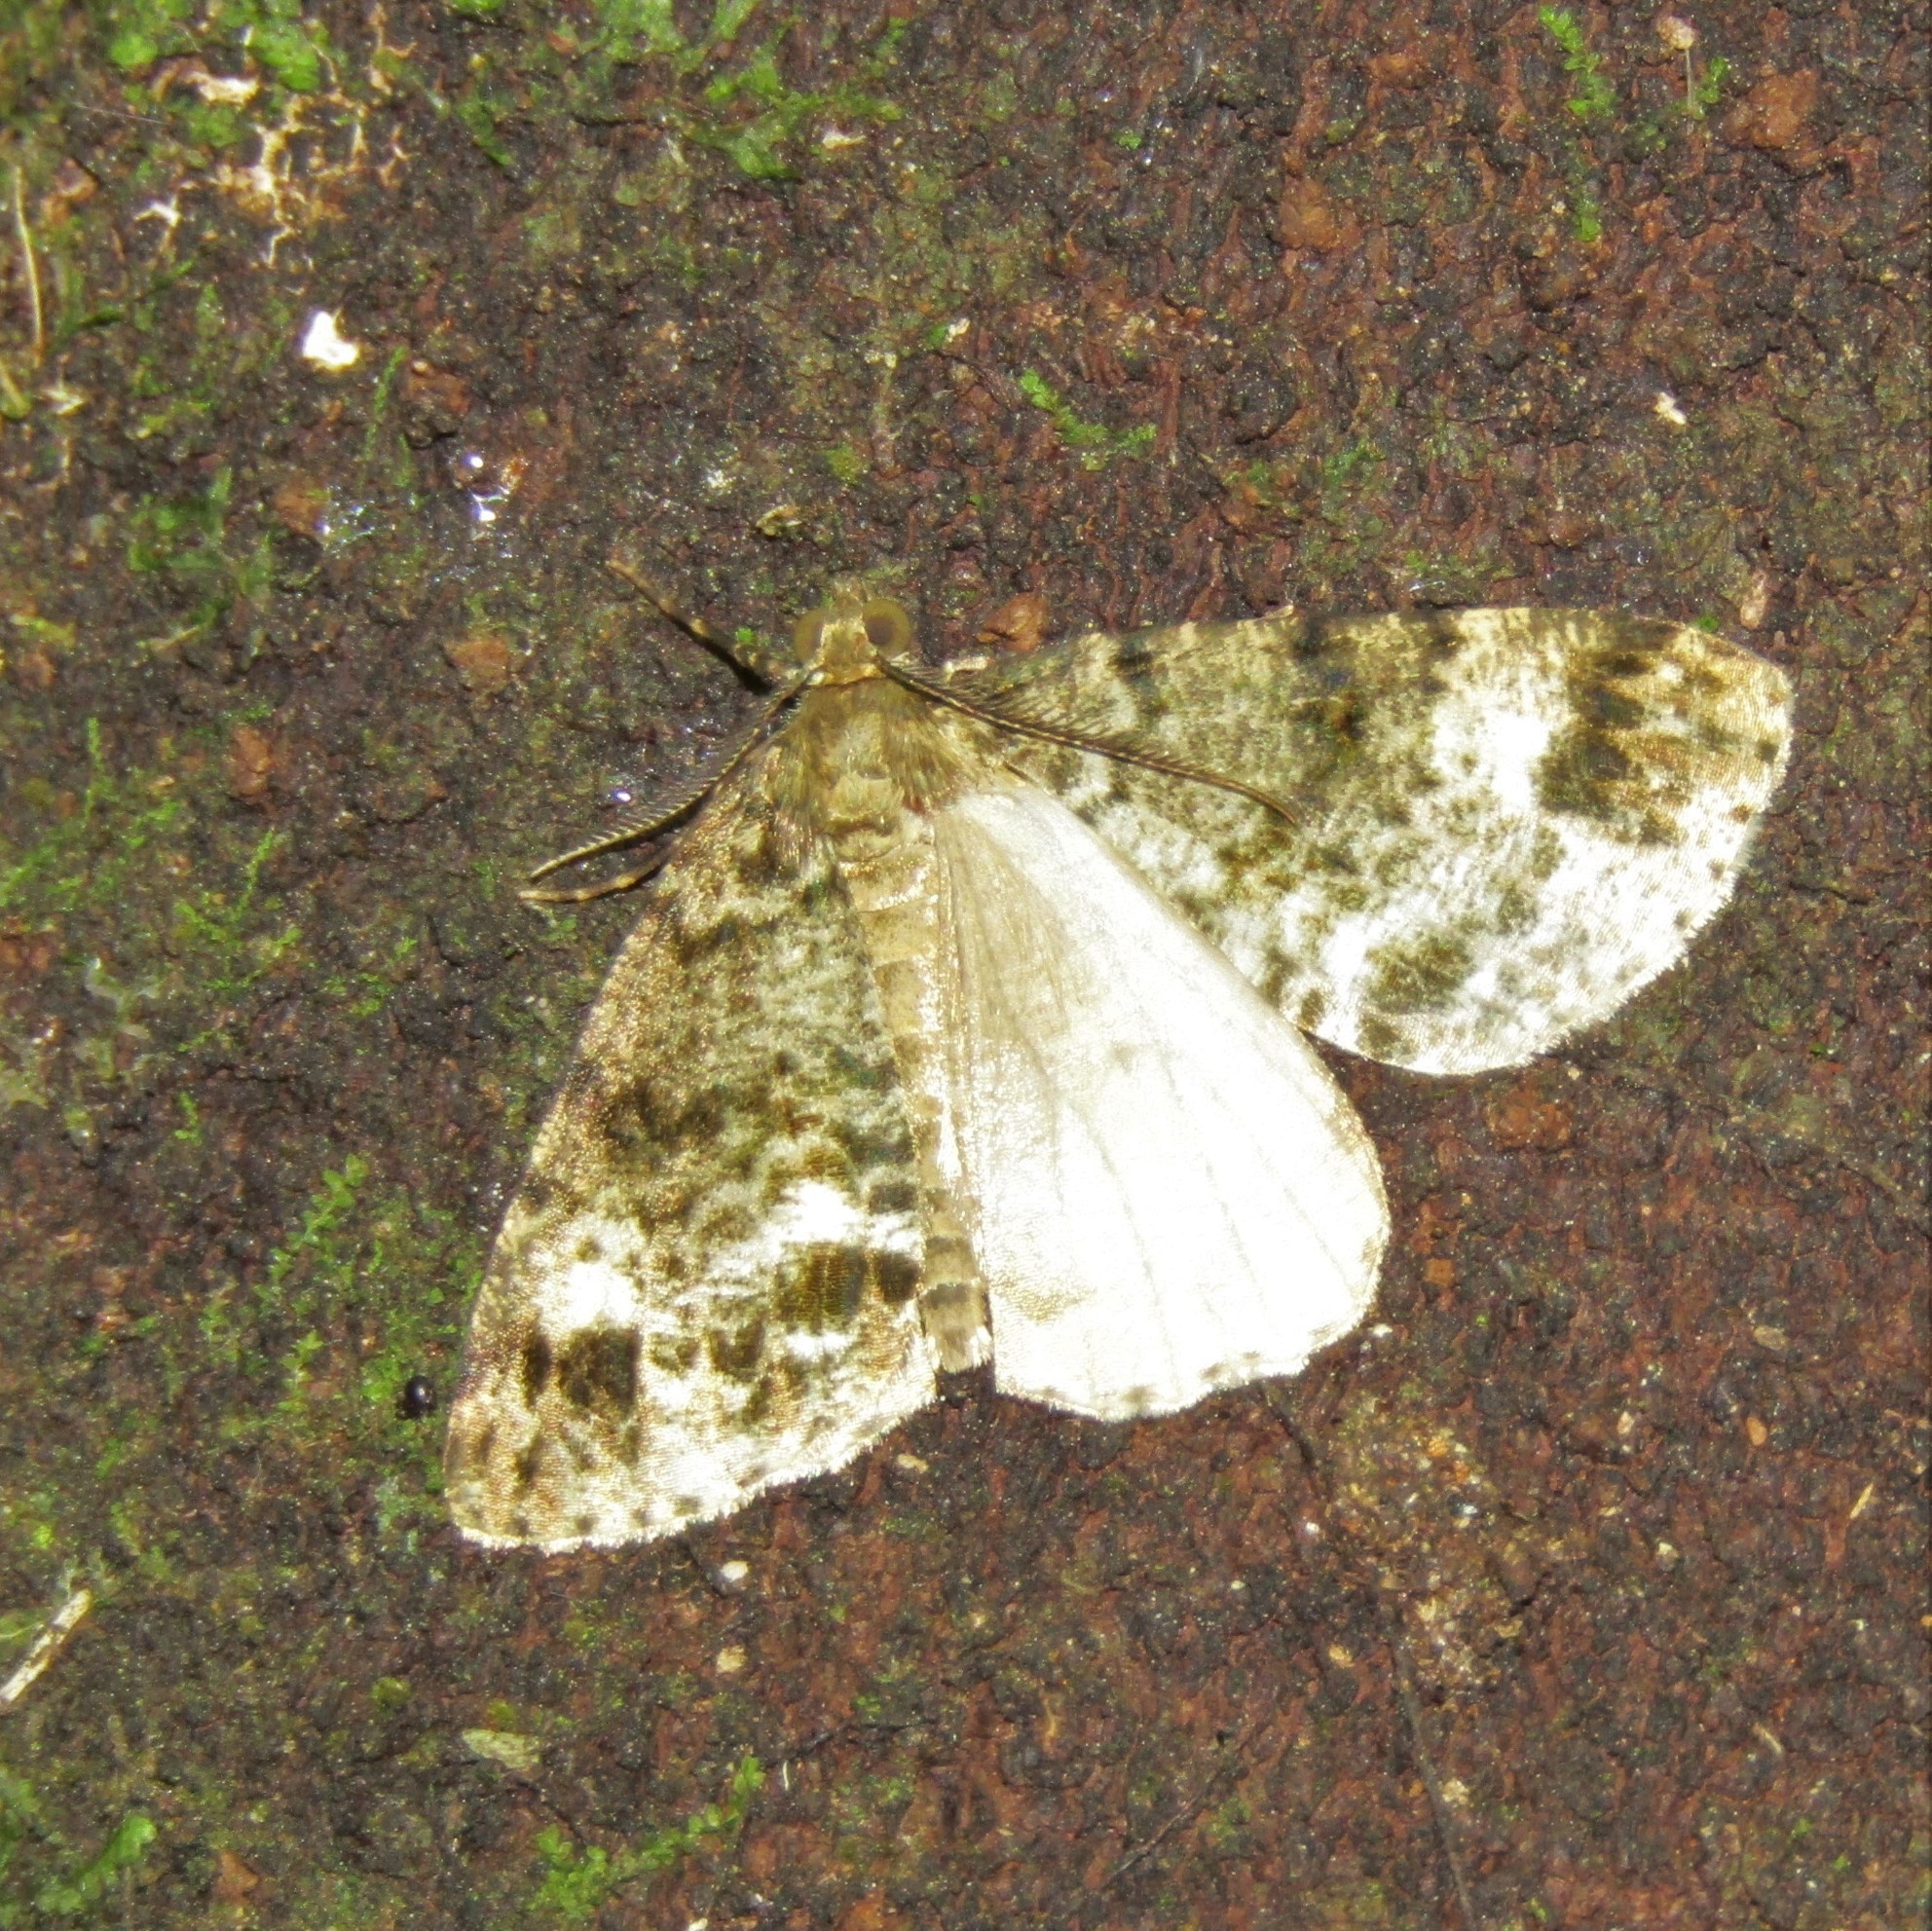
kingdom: Animalia
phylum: Arthropoda
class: Insecta
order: Lepidoptera
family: Geometridae
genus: Pseudocoremia
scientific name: Pseudocoremia indistincta
